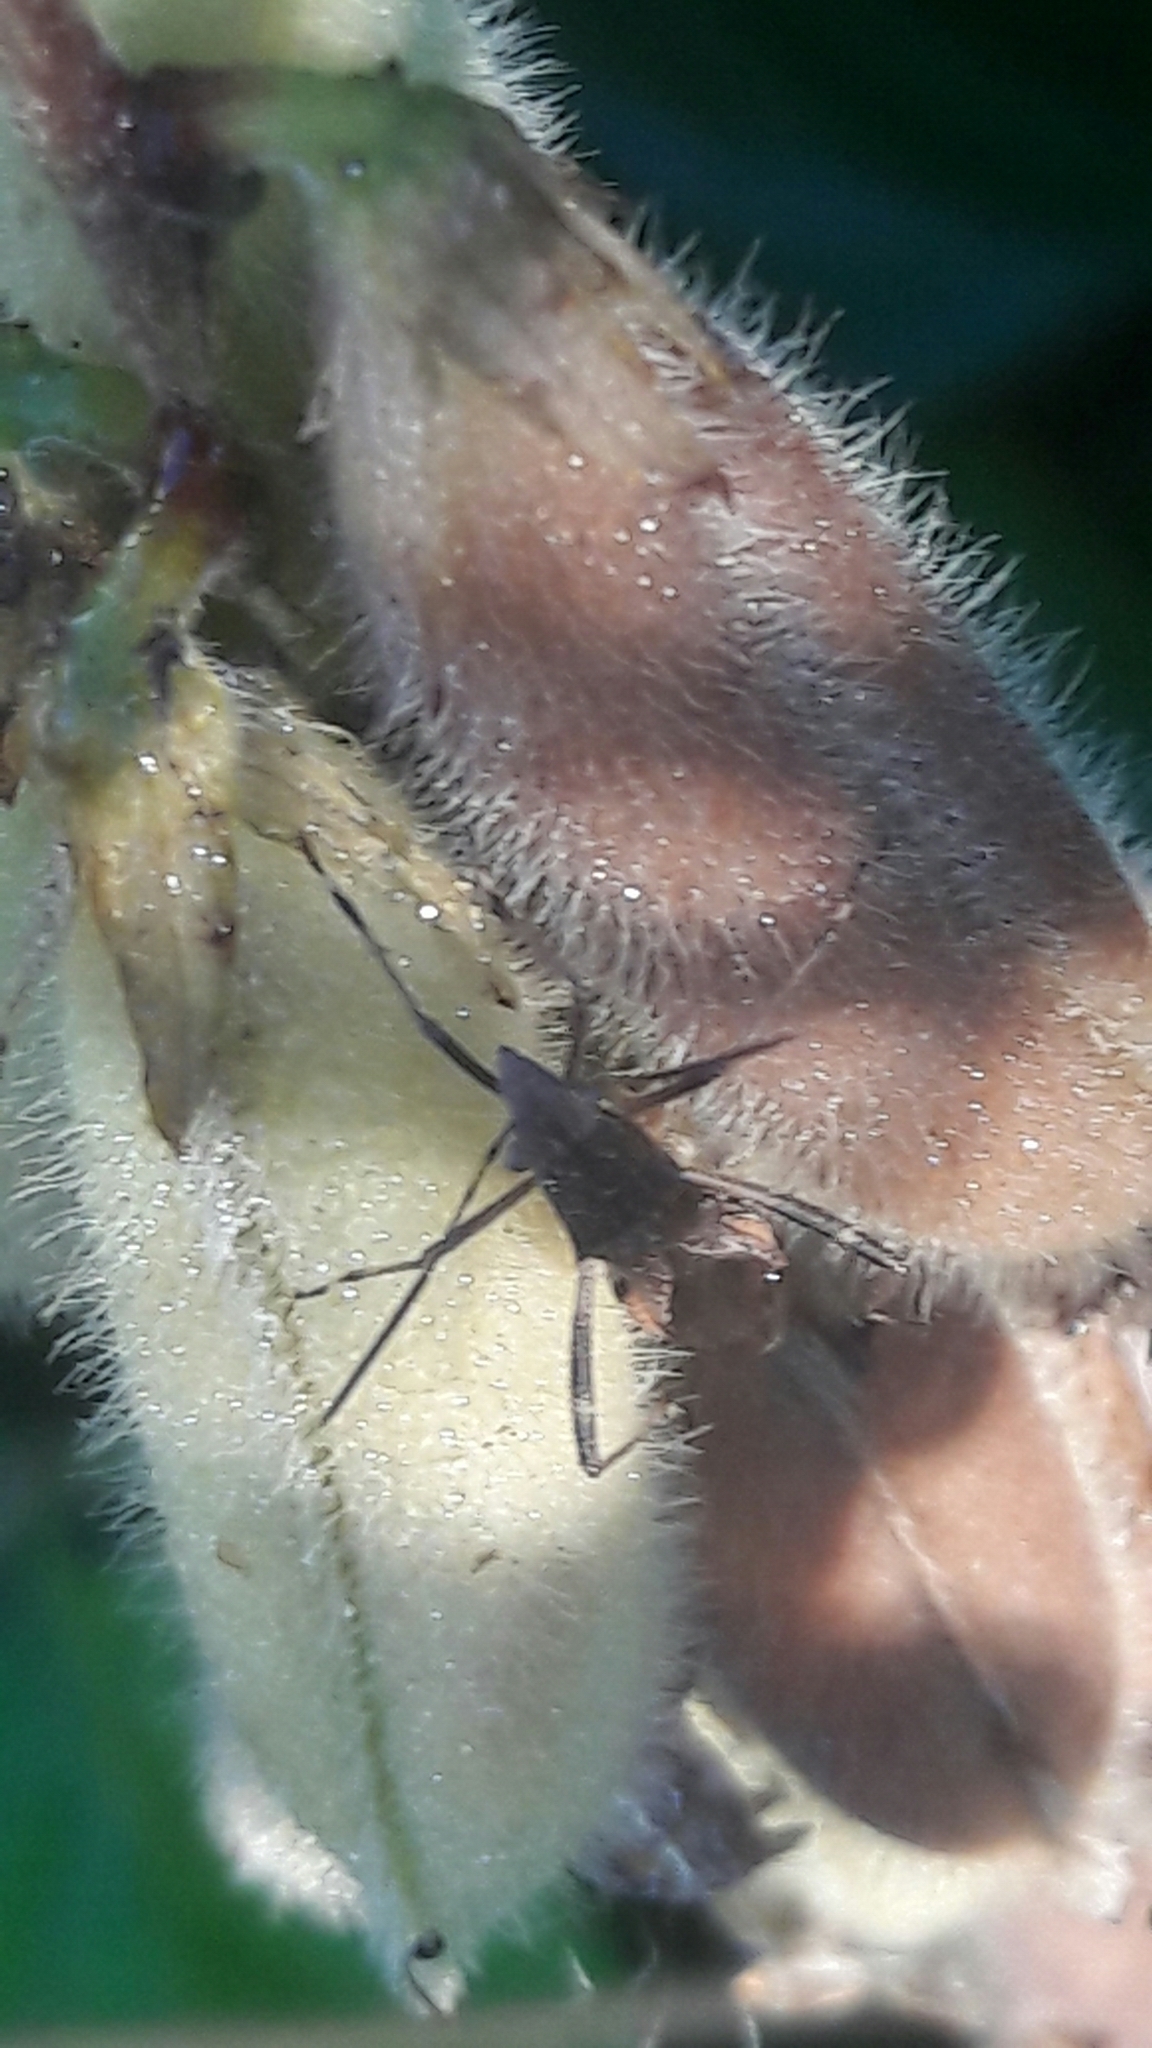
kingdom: Animalia
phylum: Arthropoda
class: Insecta
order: Hemiptera
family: Alydidae
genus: Neomegalotomus
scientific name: Neomegalotomus parvus
